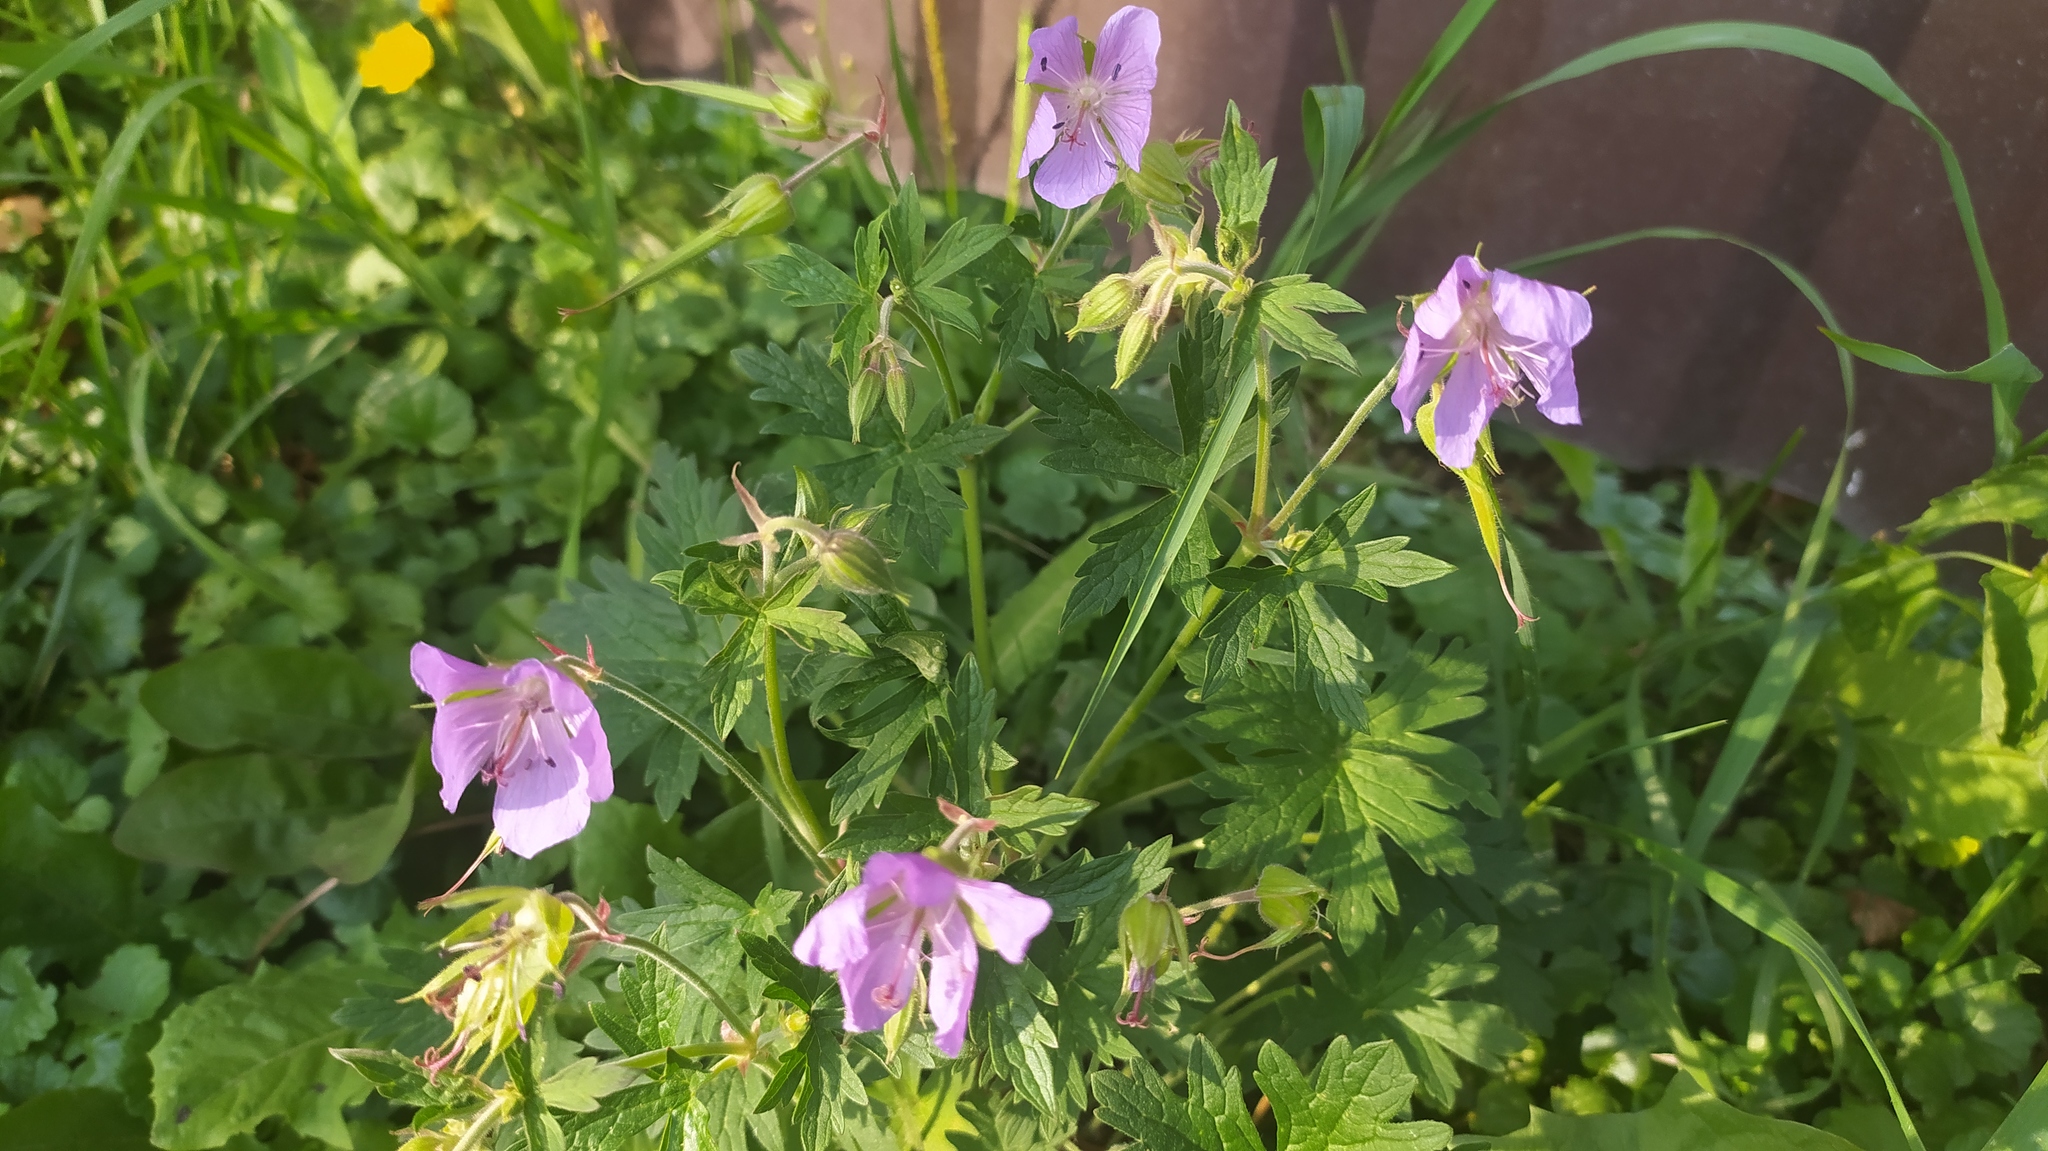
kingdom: Plantae
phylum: Tracheophyta
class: Magnoliopsida
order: Geraniales
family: Geraniaceae
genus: Geranium
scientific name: Geranium pratense
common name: Meadow crane's-bill
